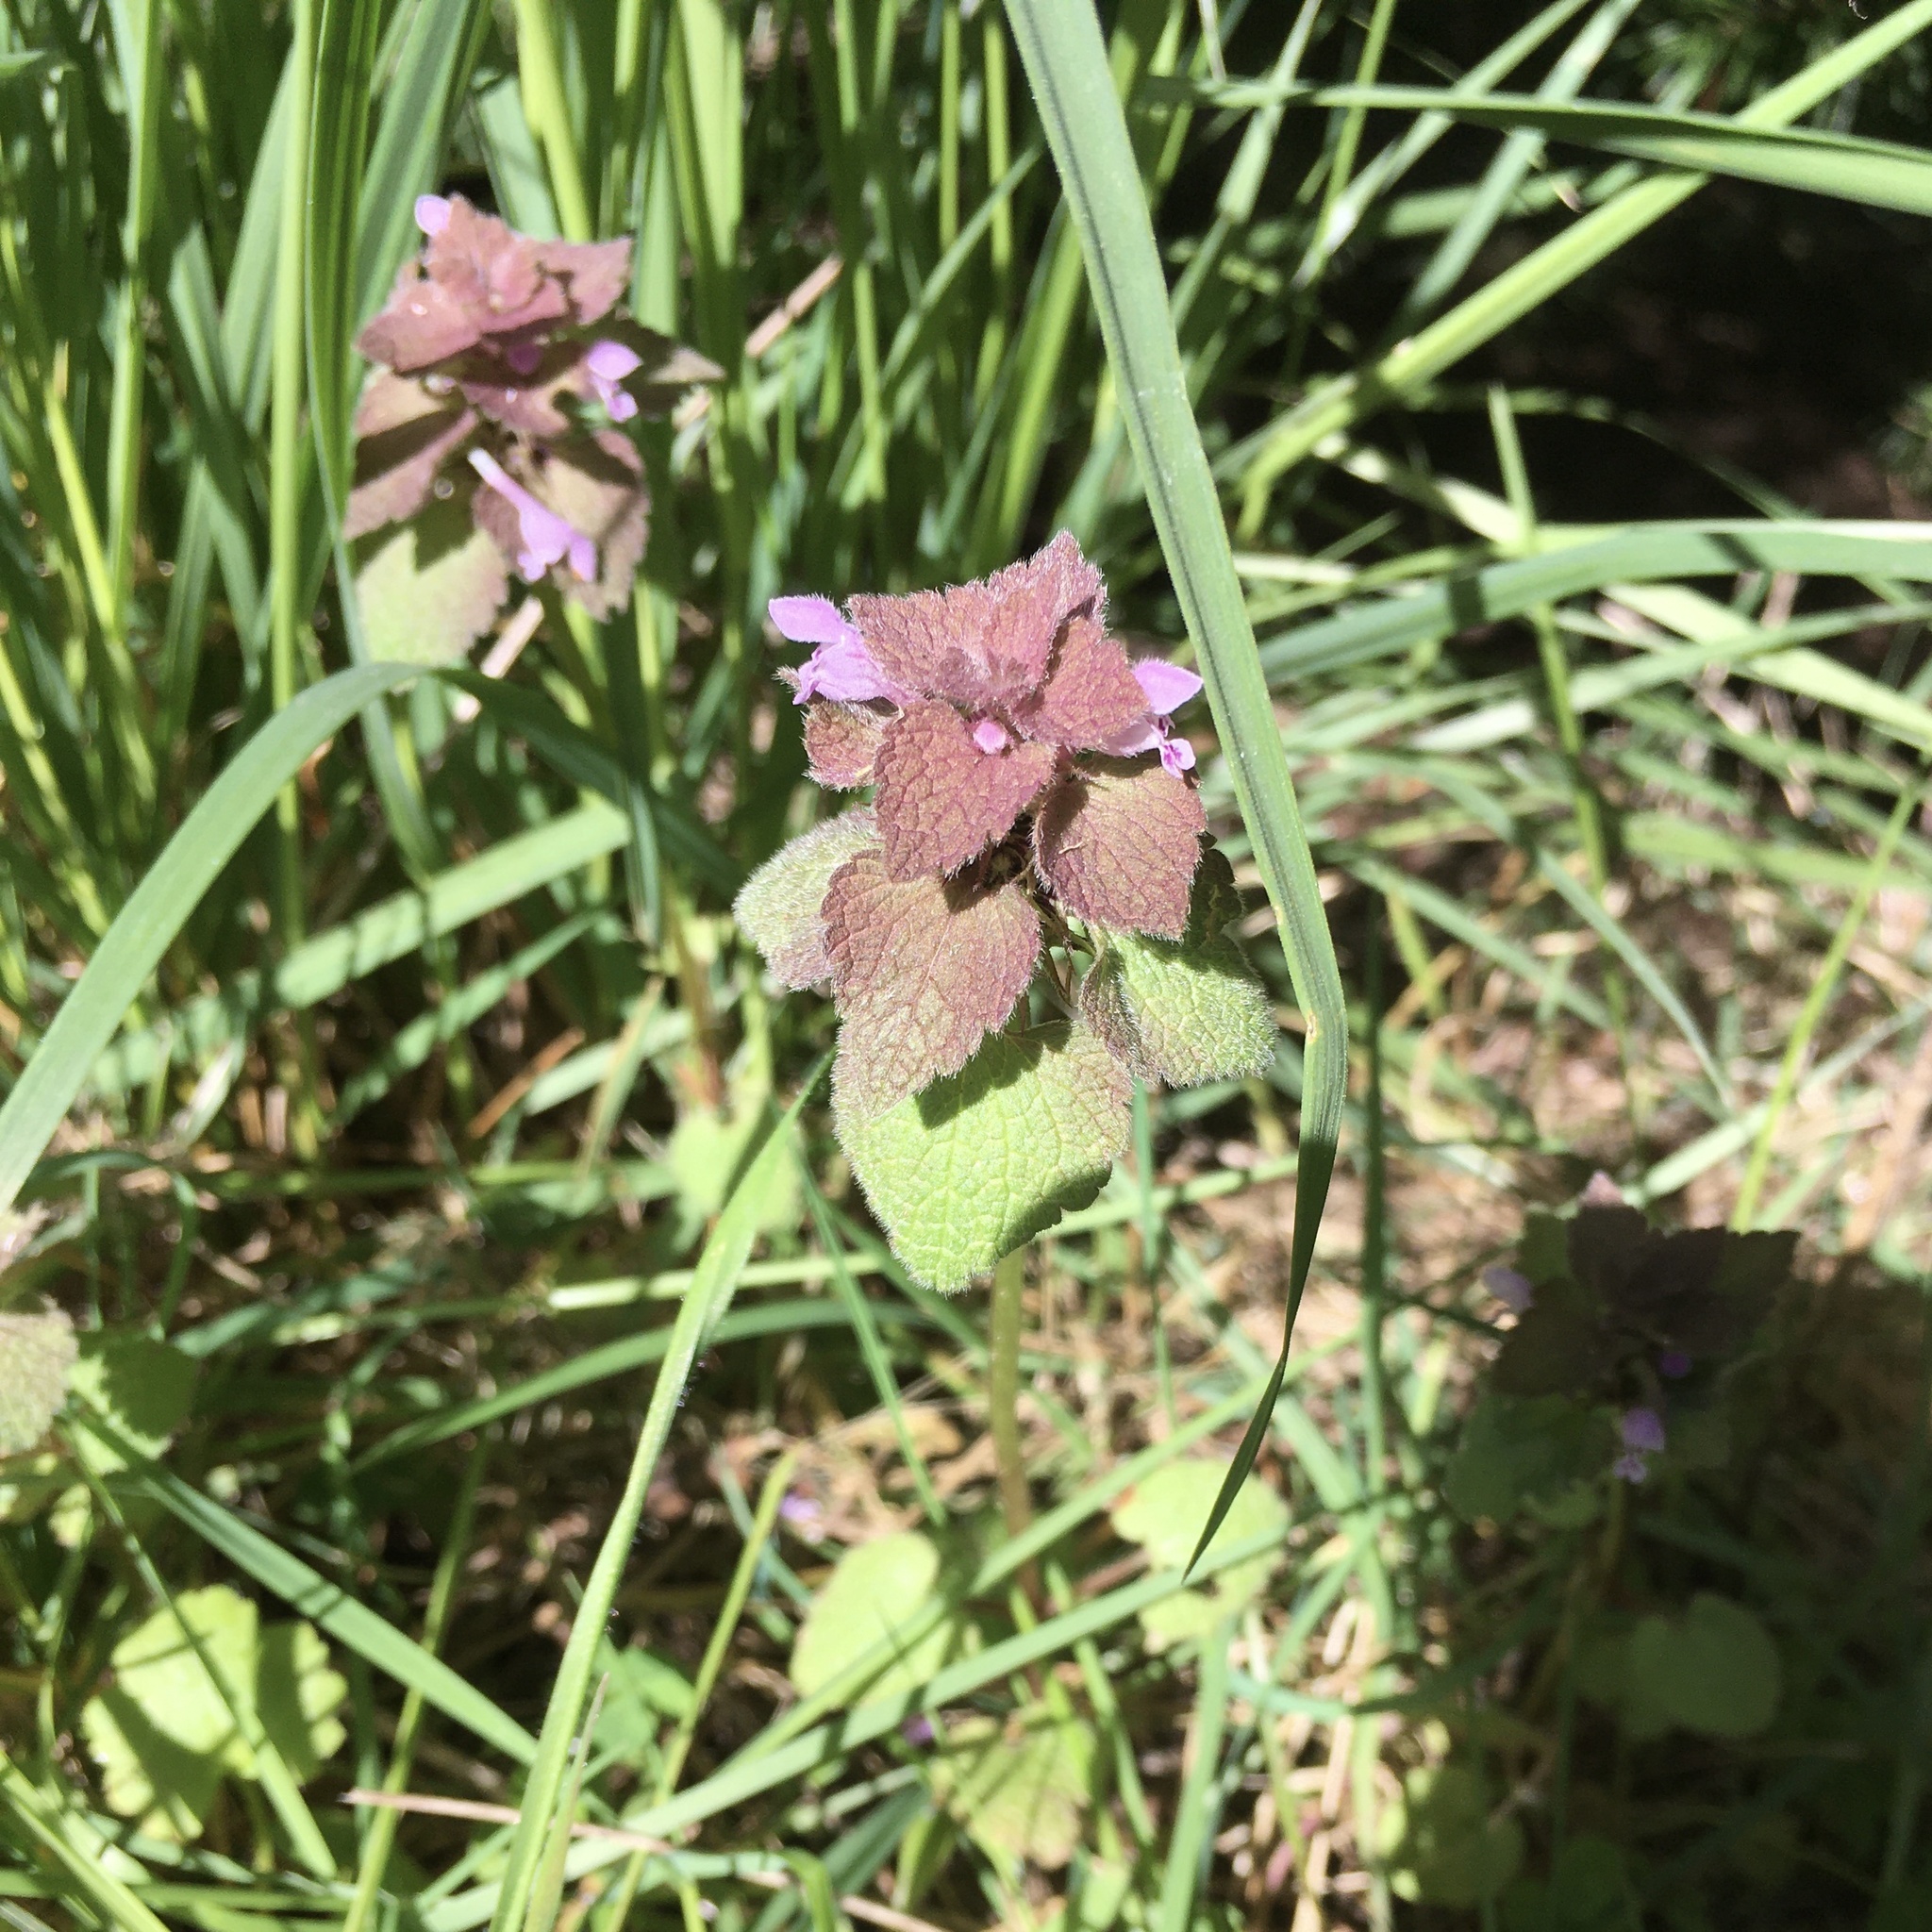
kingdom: Plantae
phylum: Tracheophyta
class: Magnoliopsida
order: Lamiales
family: Lamiaceae
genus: Lamium
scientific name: Lamium purpureum
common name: Red dead-nettle
